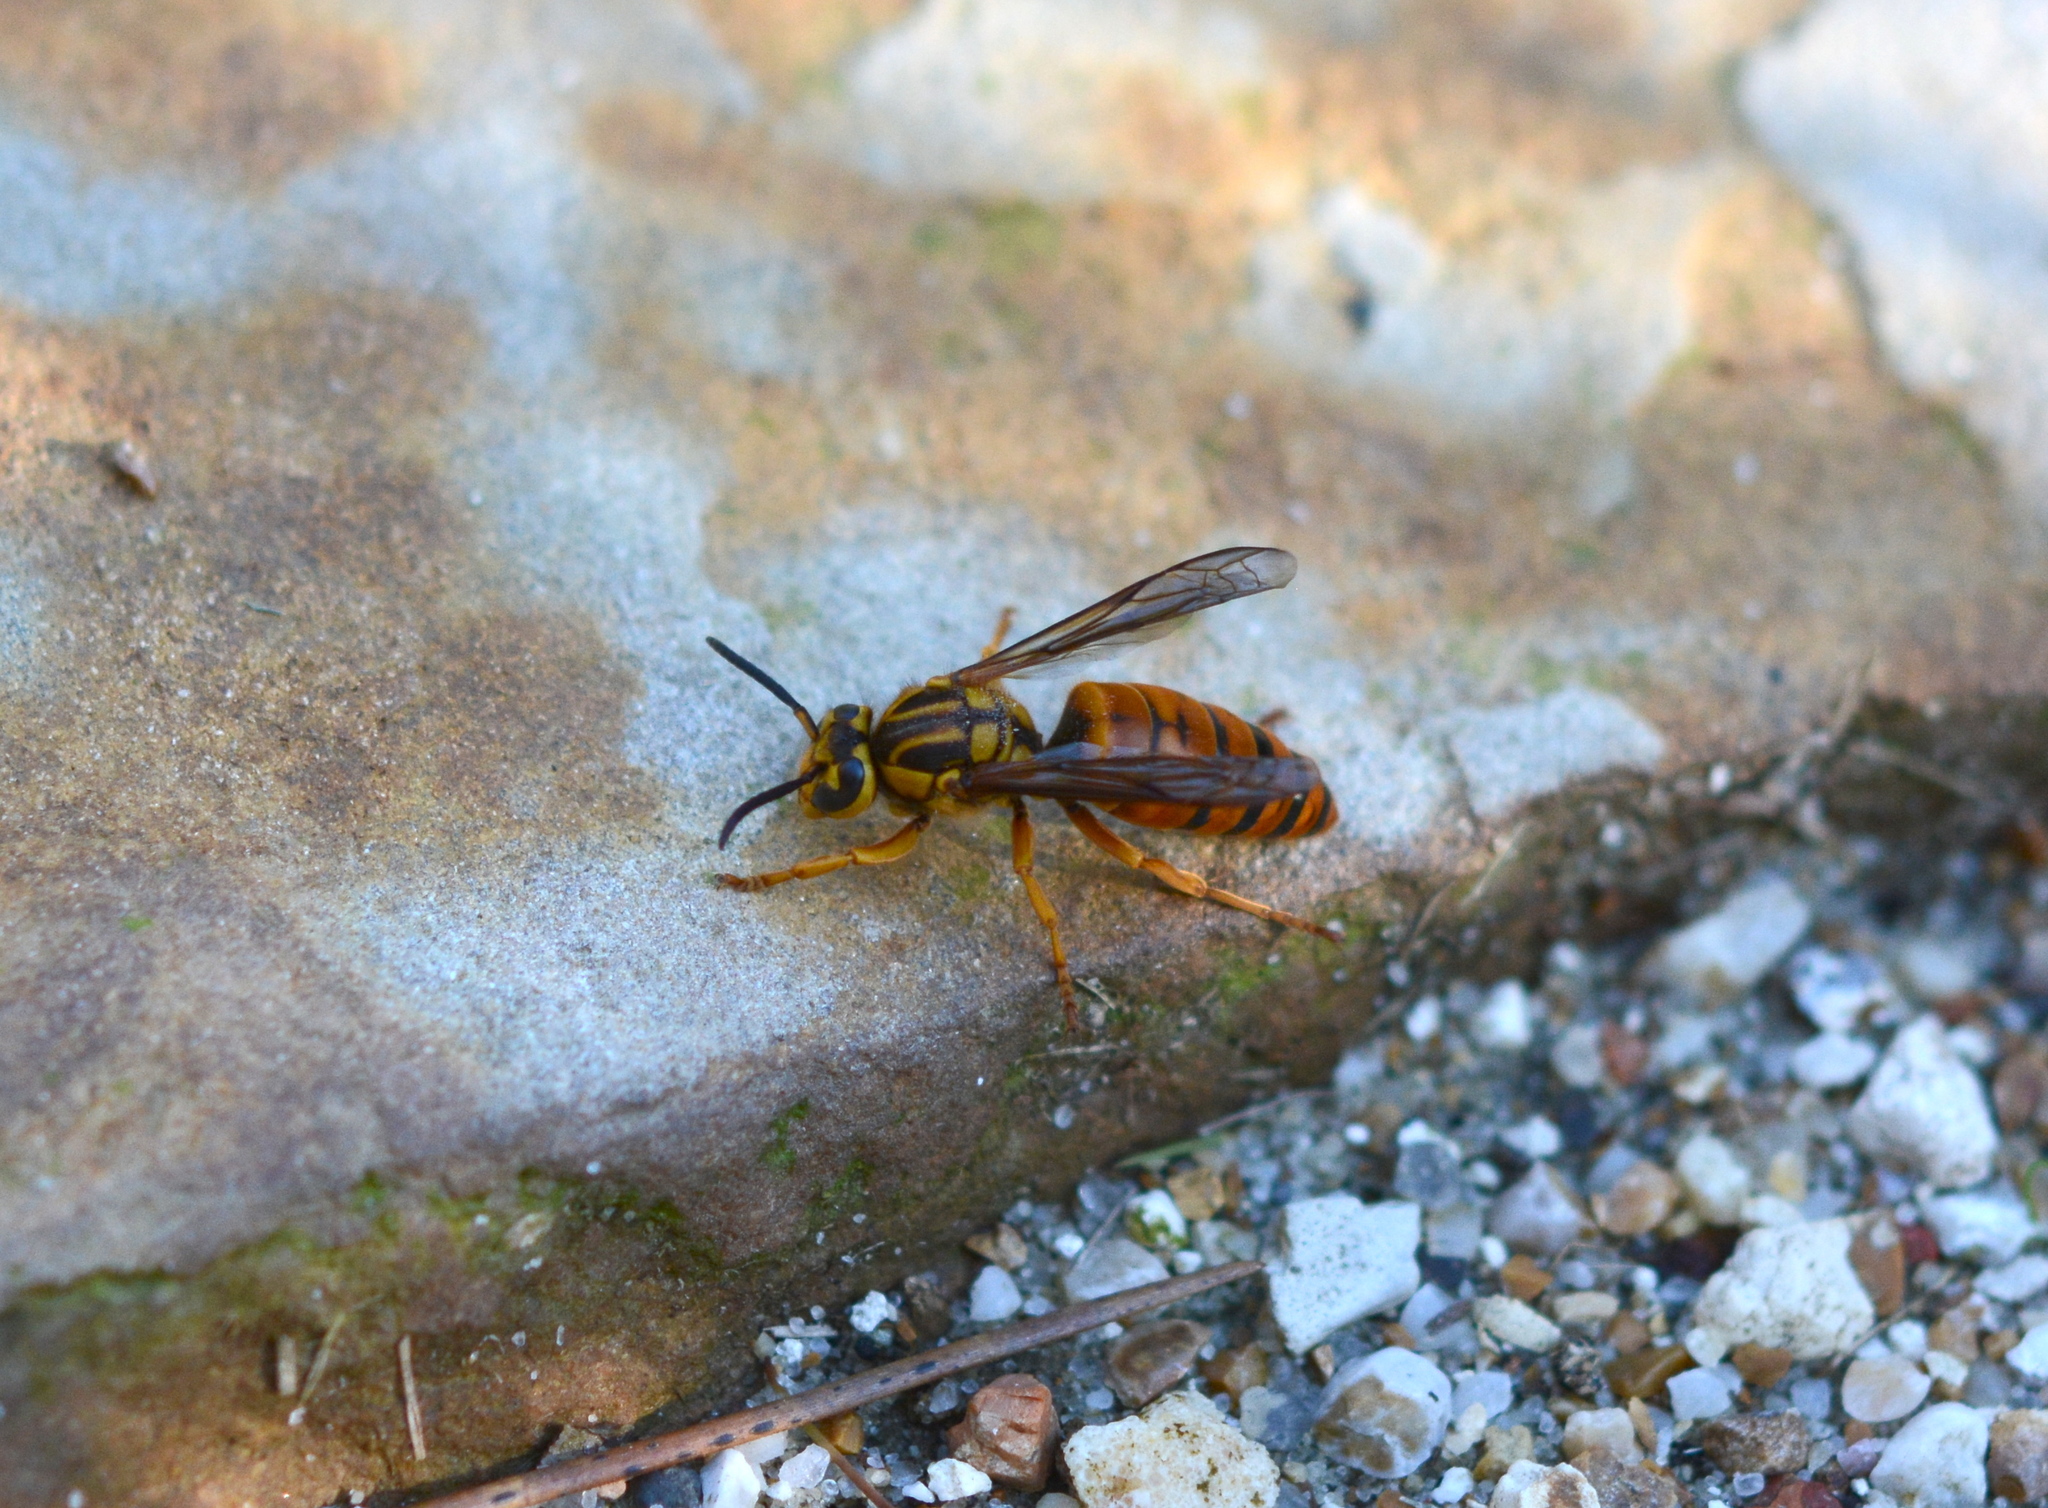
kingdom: Animalia
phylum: Arthropoda
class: Insecta
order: Hymenoptera
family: Vespidae
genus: Vespula
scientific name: Vespula squamosa
